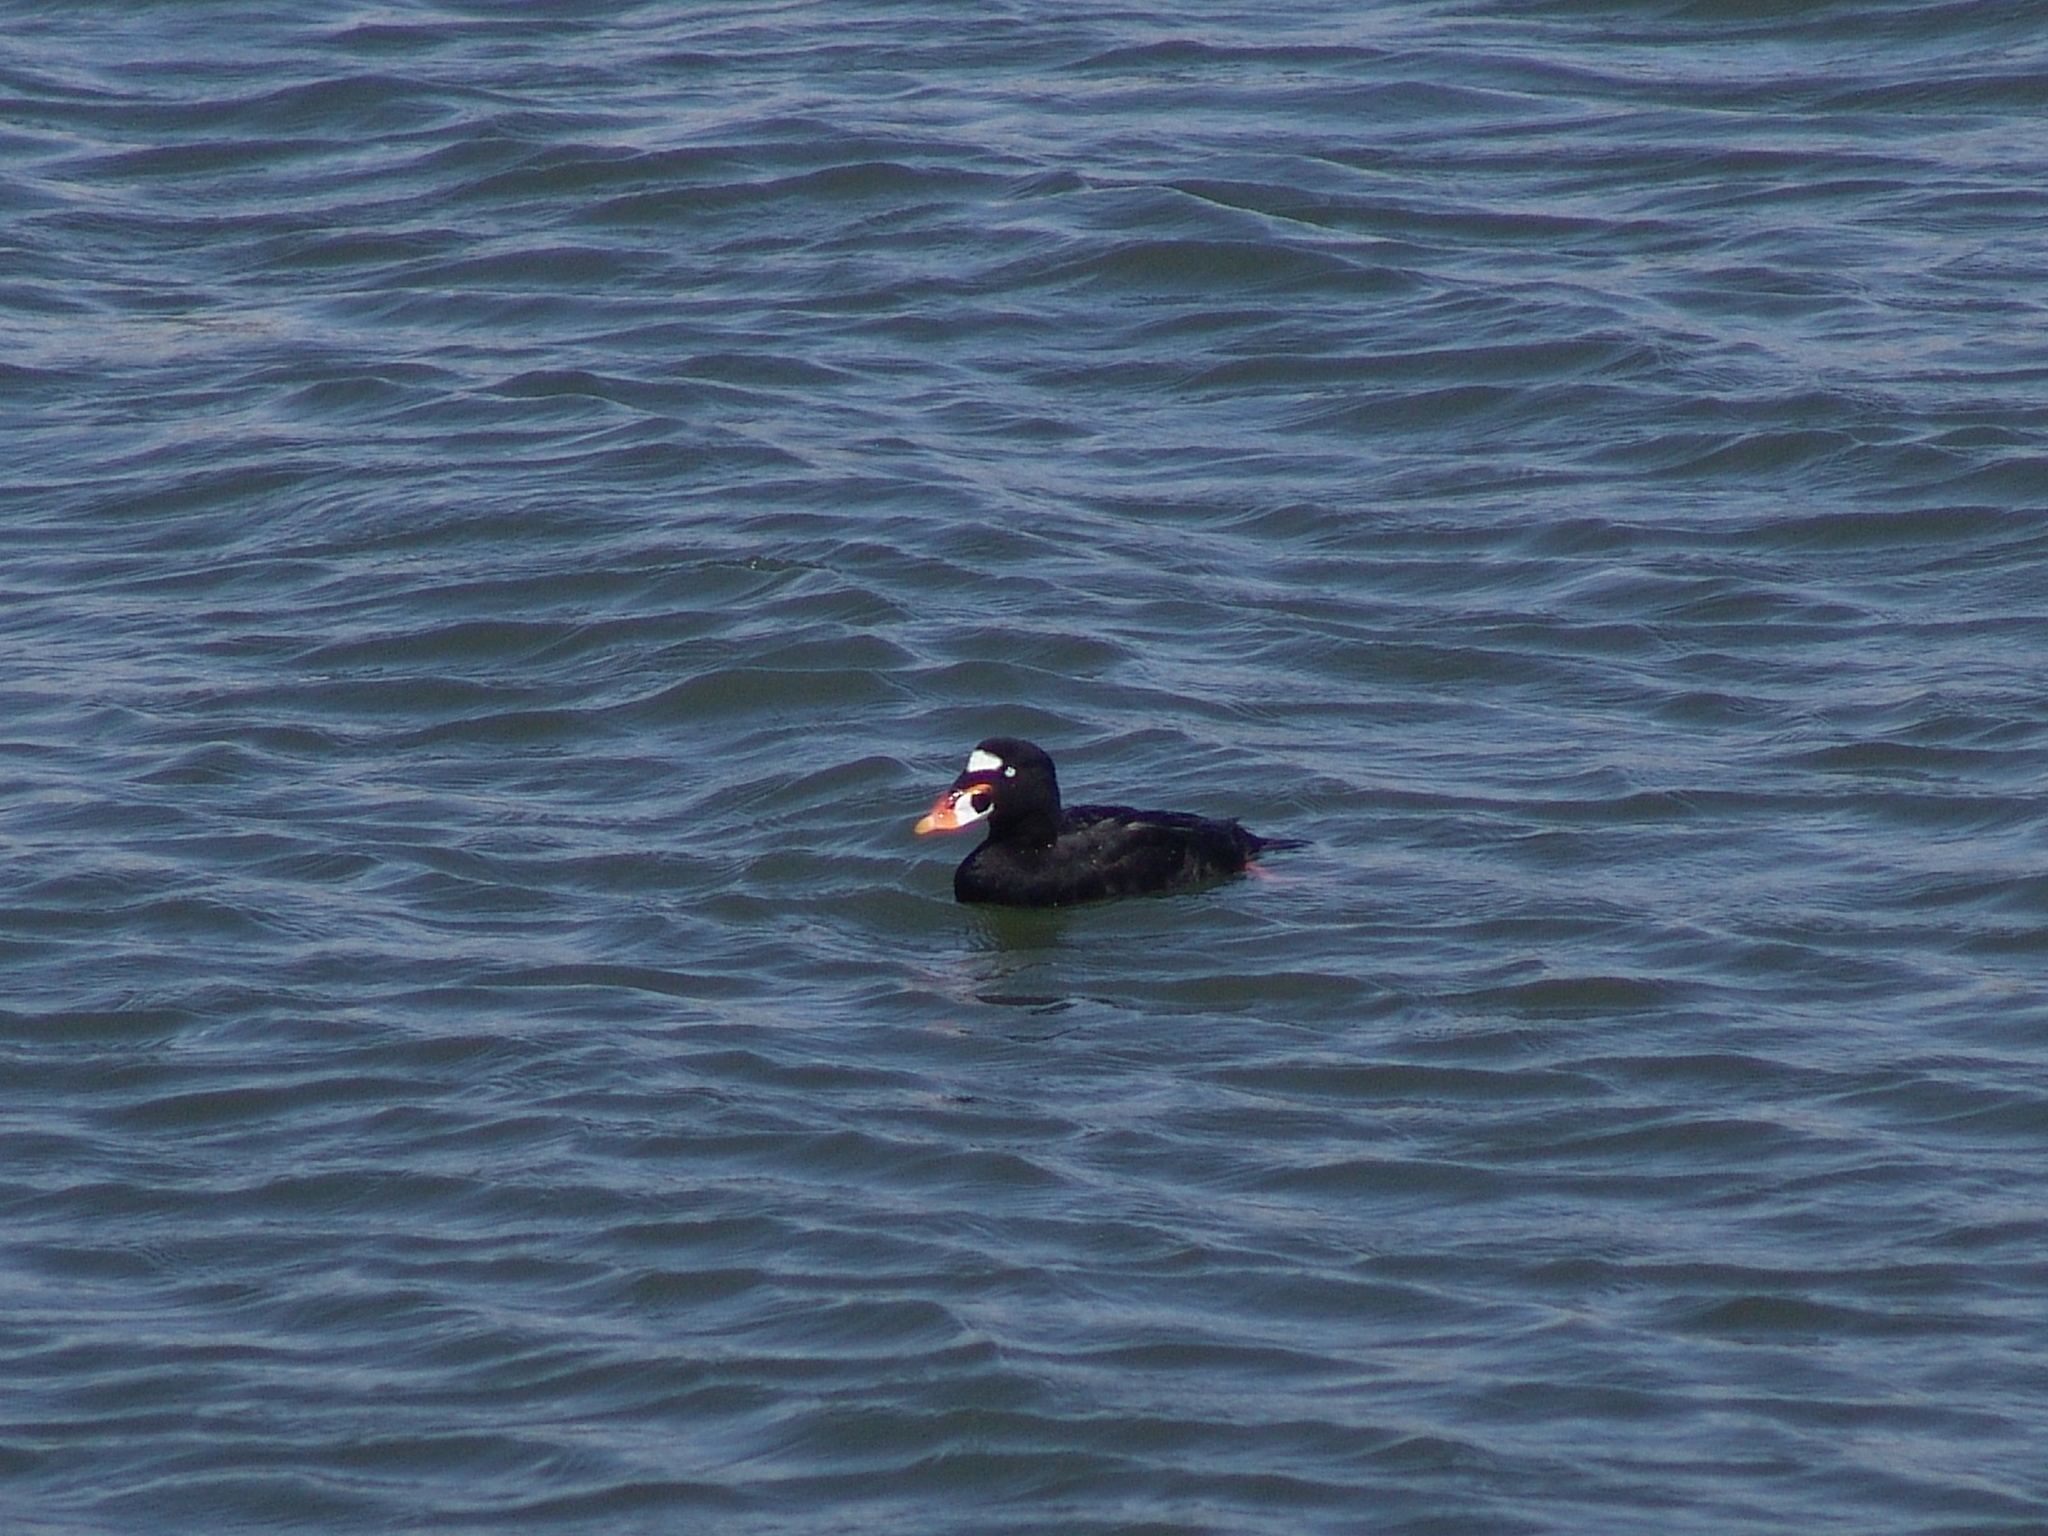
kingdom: Animalia
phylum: Chordata
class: Aves
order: Anseriformes
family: Anatidae
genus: Melanitta
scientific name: Melanitta perspicillata
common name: Surf scoter
